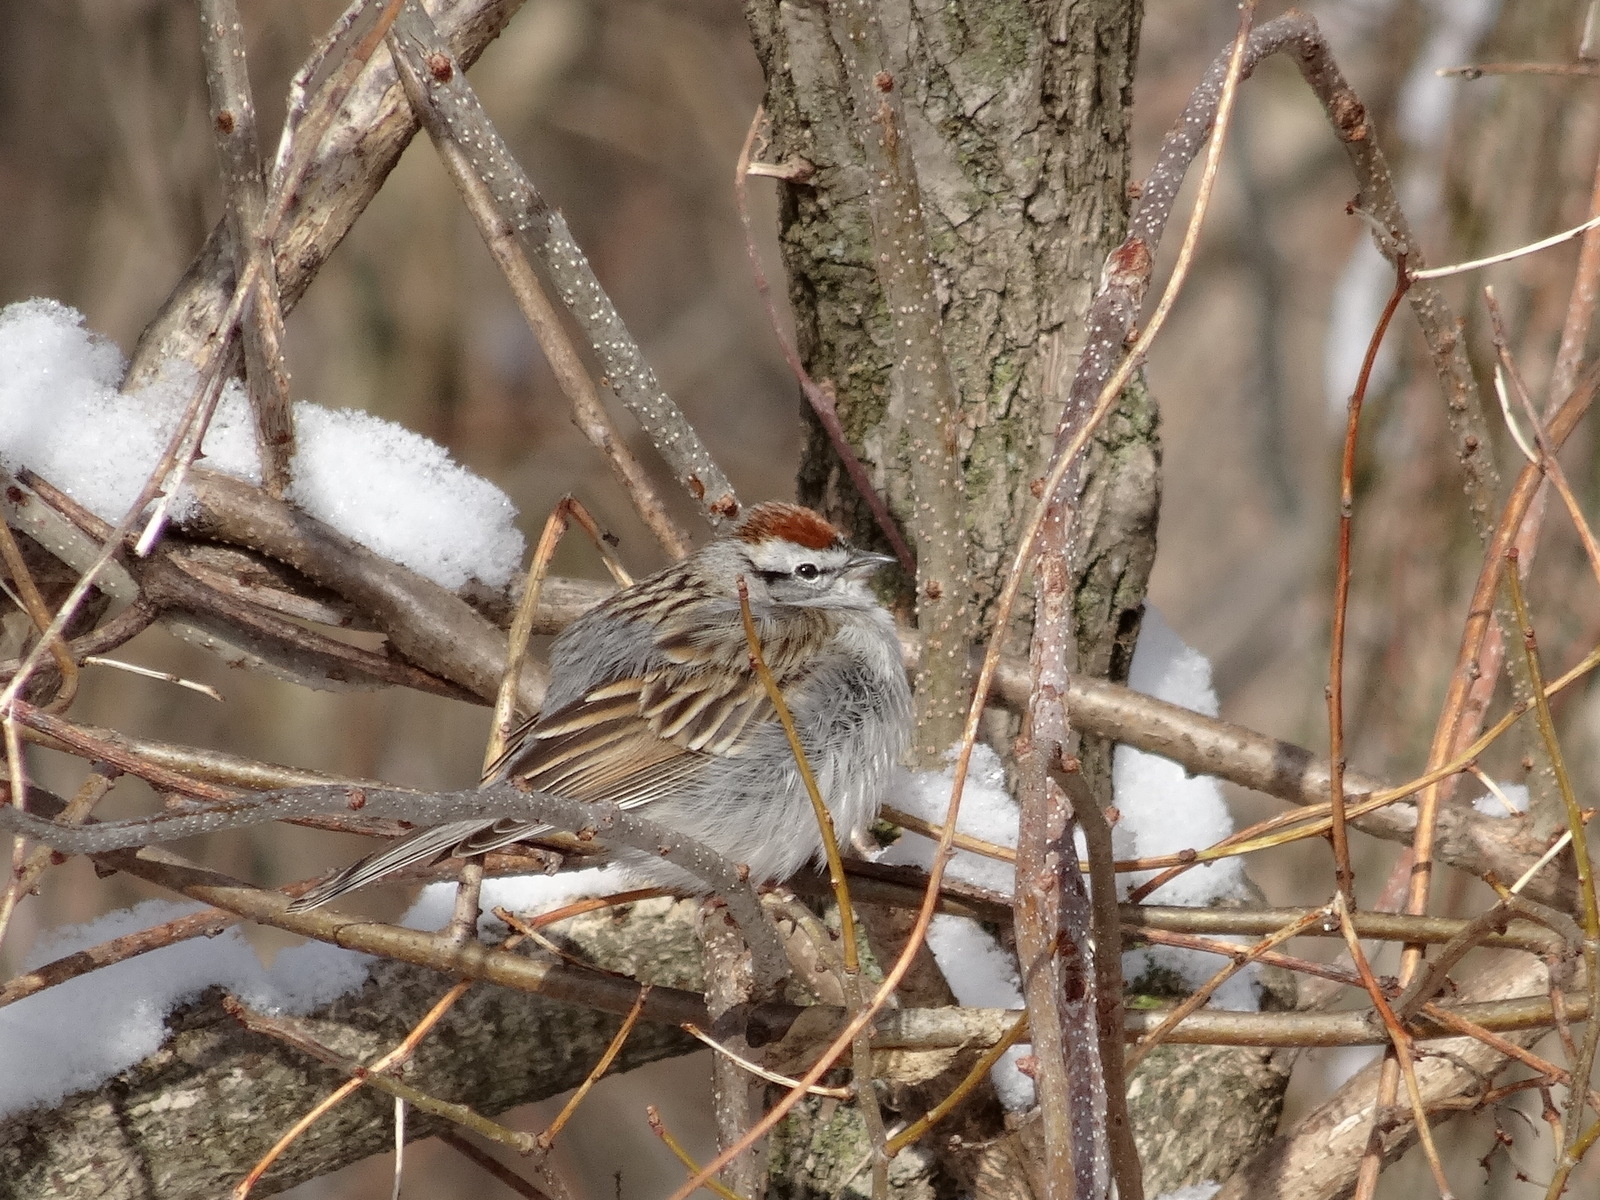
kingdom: Animalia
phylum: Chordata
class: Aves
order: Passeriformes
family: Passerellidae
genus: Spizella
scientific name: Spizella passerina
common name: Chipping sparrow
